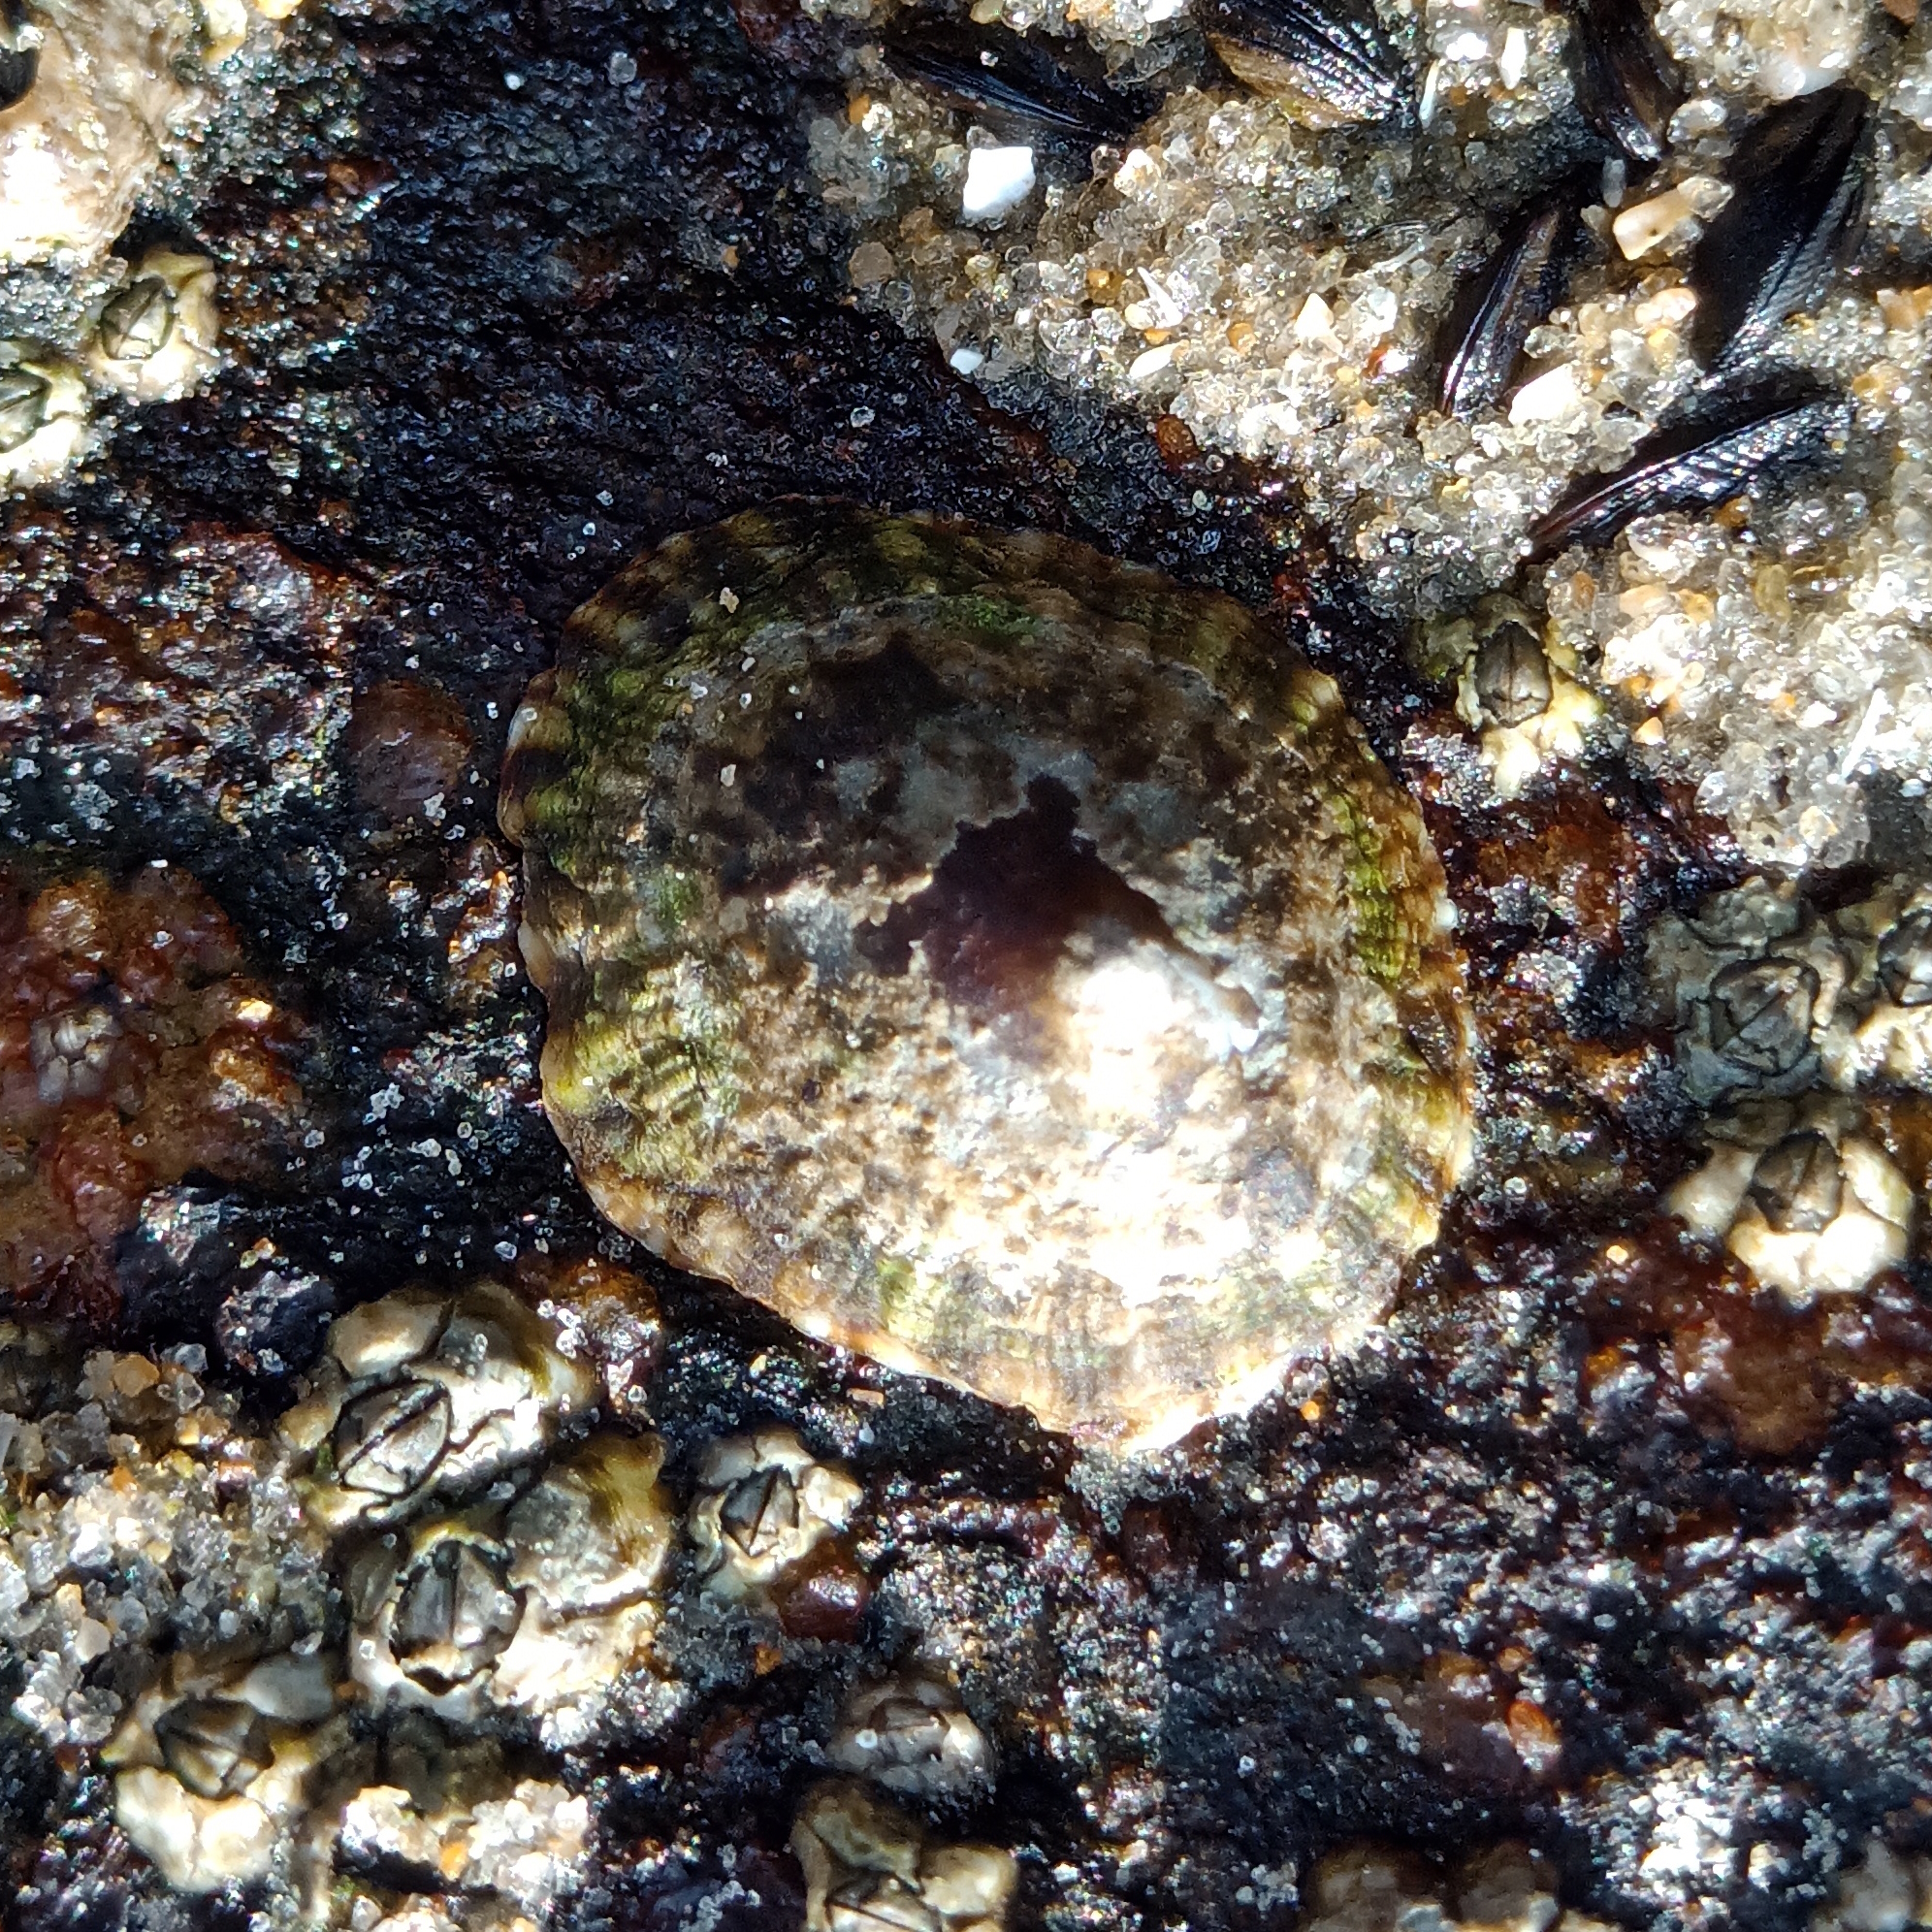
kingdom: Animalia
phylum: Mollusca
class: Gastropoda
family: Lottiidae
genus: Lottia
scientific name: Lottia subrugosa
